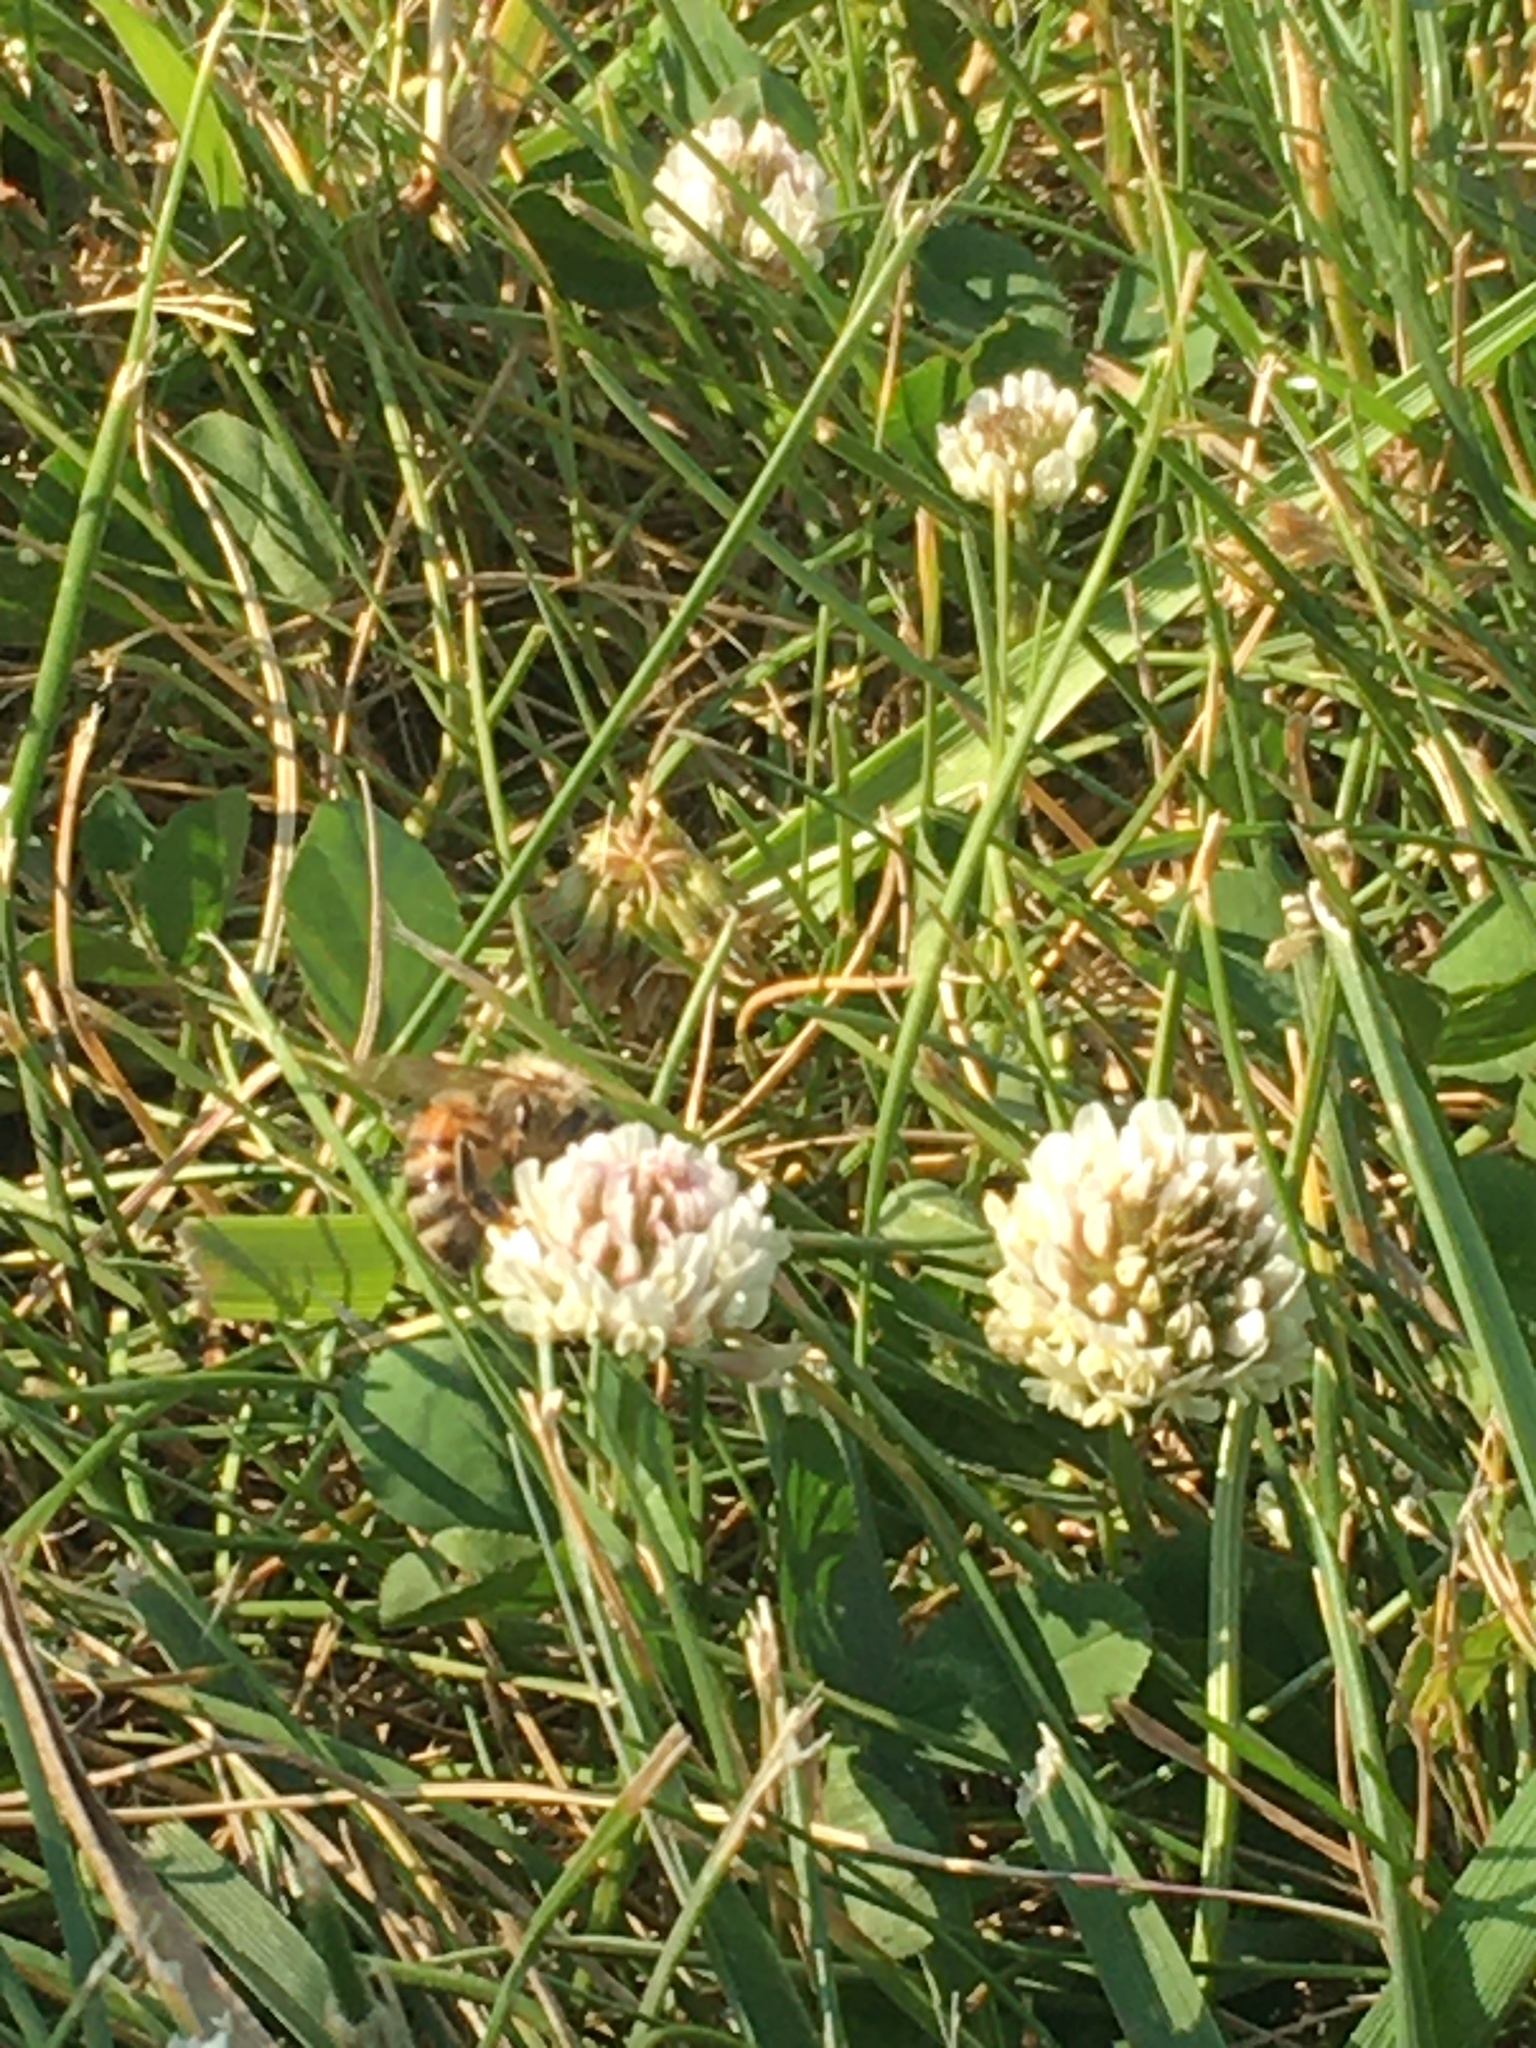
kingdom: Animalia
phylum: Arthropoda
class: Insecta
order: Hymenoptera
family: Apidae
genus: Apis
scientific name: Apis mellifera
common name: Honey bee
